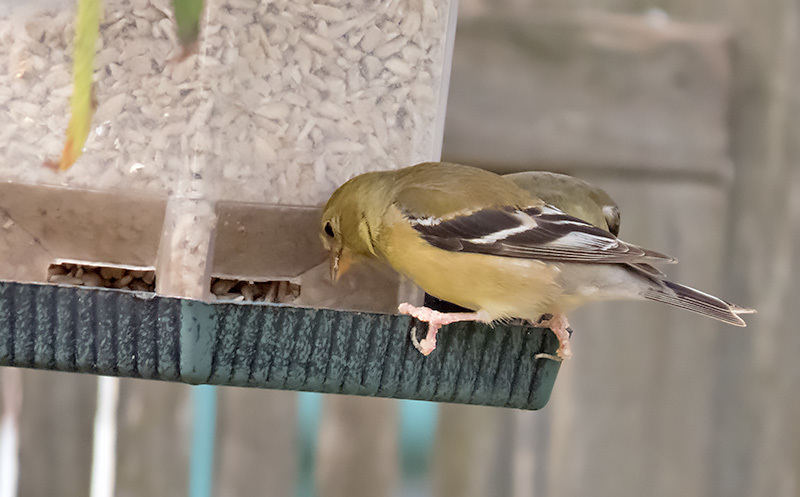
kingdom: Animalia
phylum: Chordata
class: Aves
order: Passeriformes
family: Fringillidae
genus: Spinus
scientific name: Spinus tristis
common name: American goldfinch
